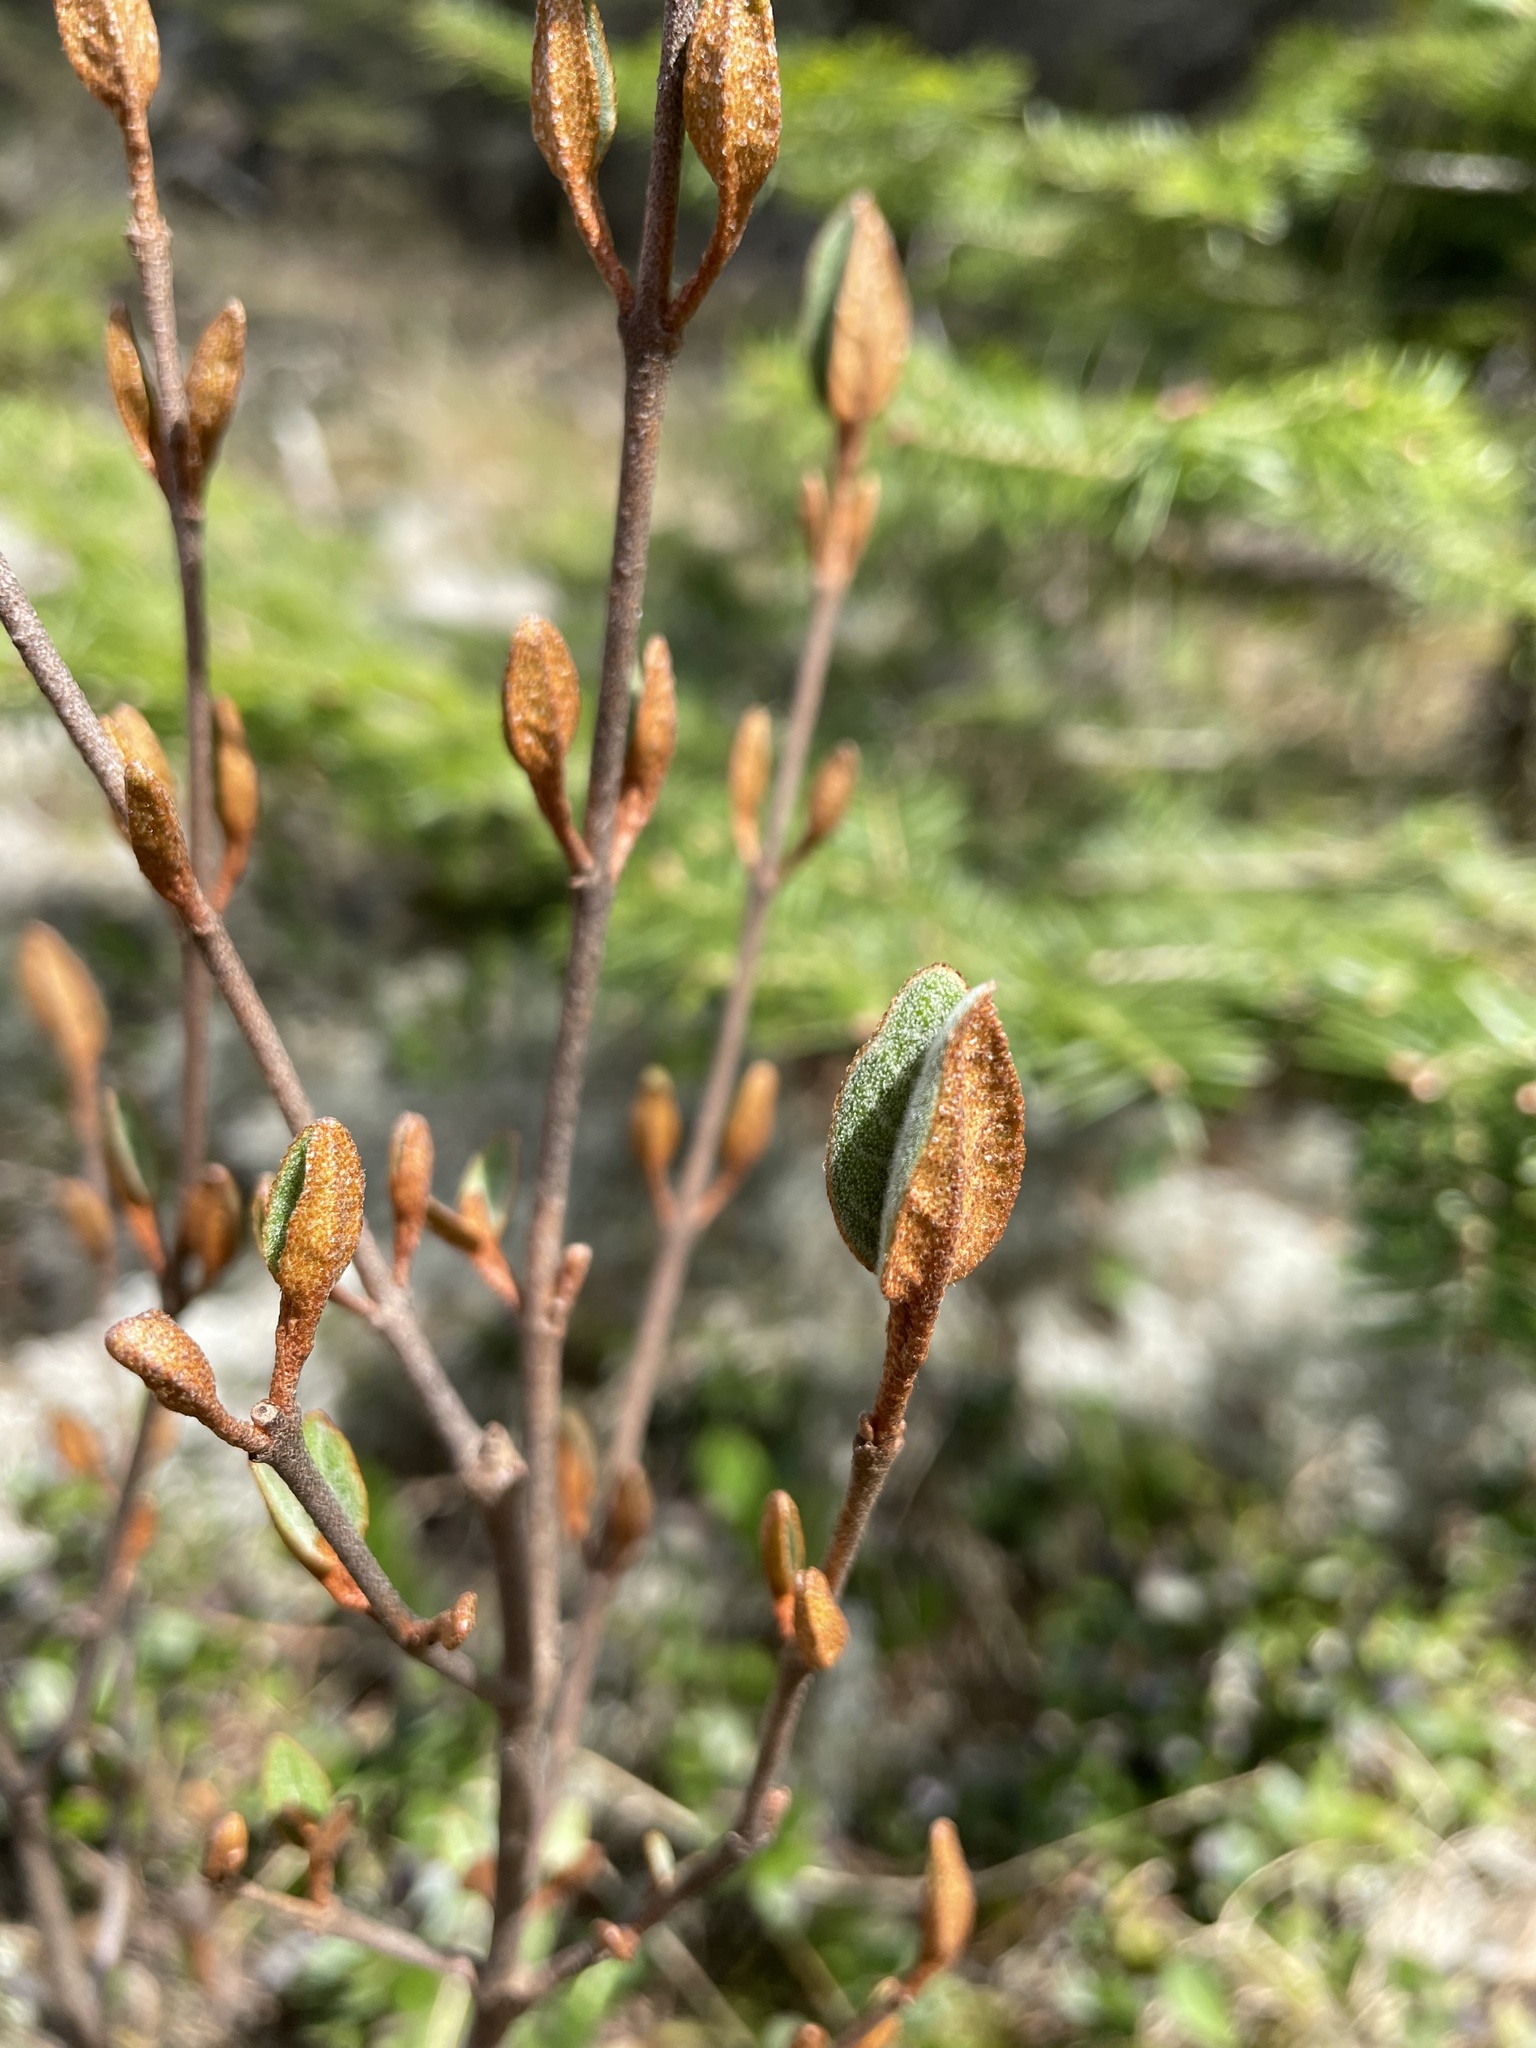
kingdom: Plantae
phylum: Tracheophyta
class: Magnoliopsida
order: Rosales
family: Elaeagnaceae
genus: Shepherdia
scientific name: Shepherdia canadensis
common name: Soapberry
